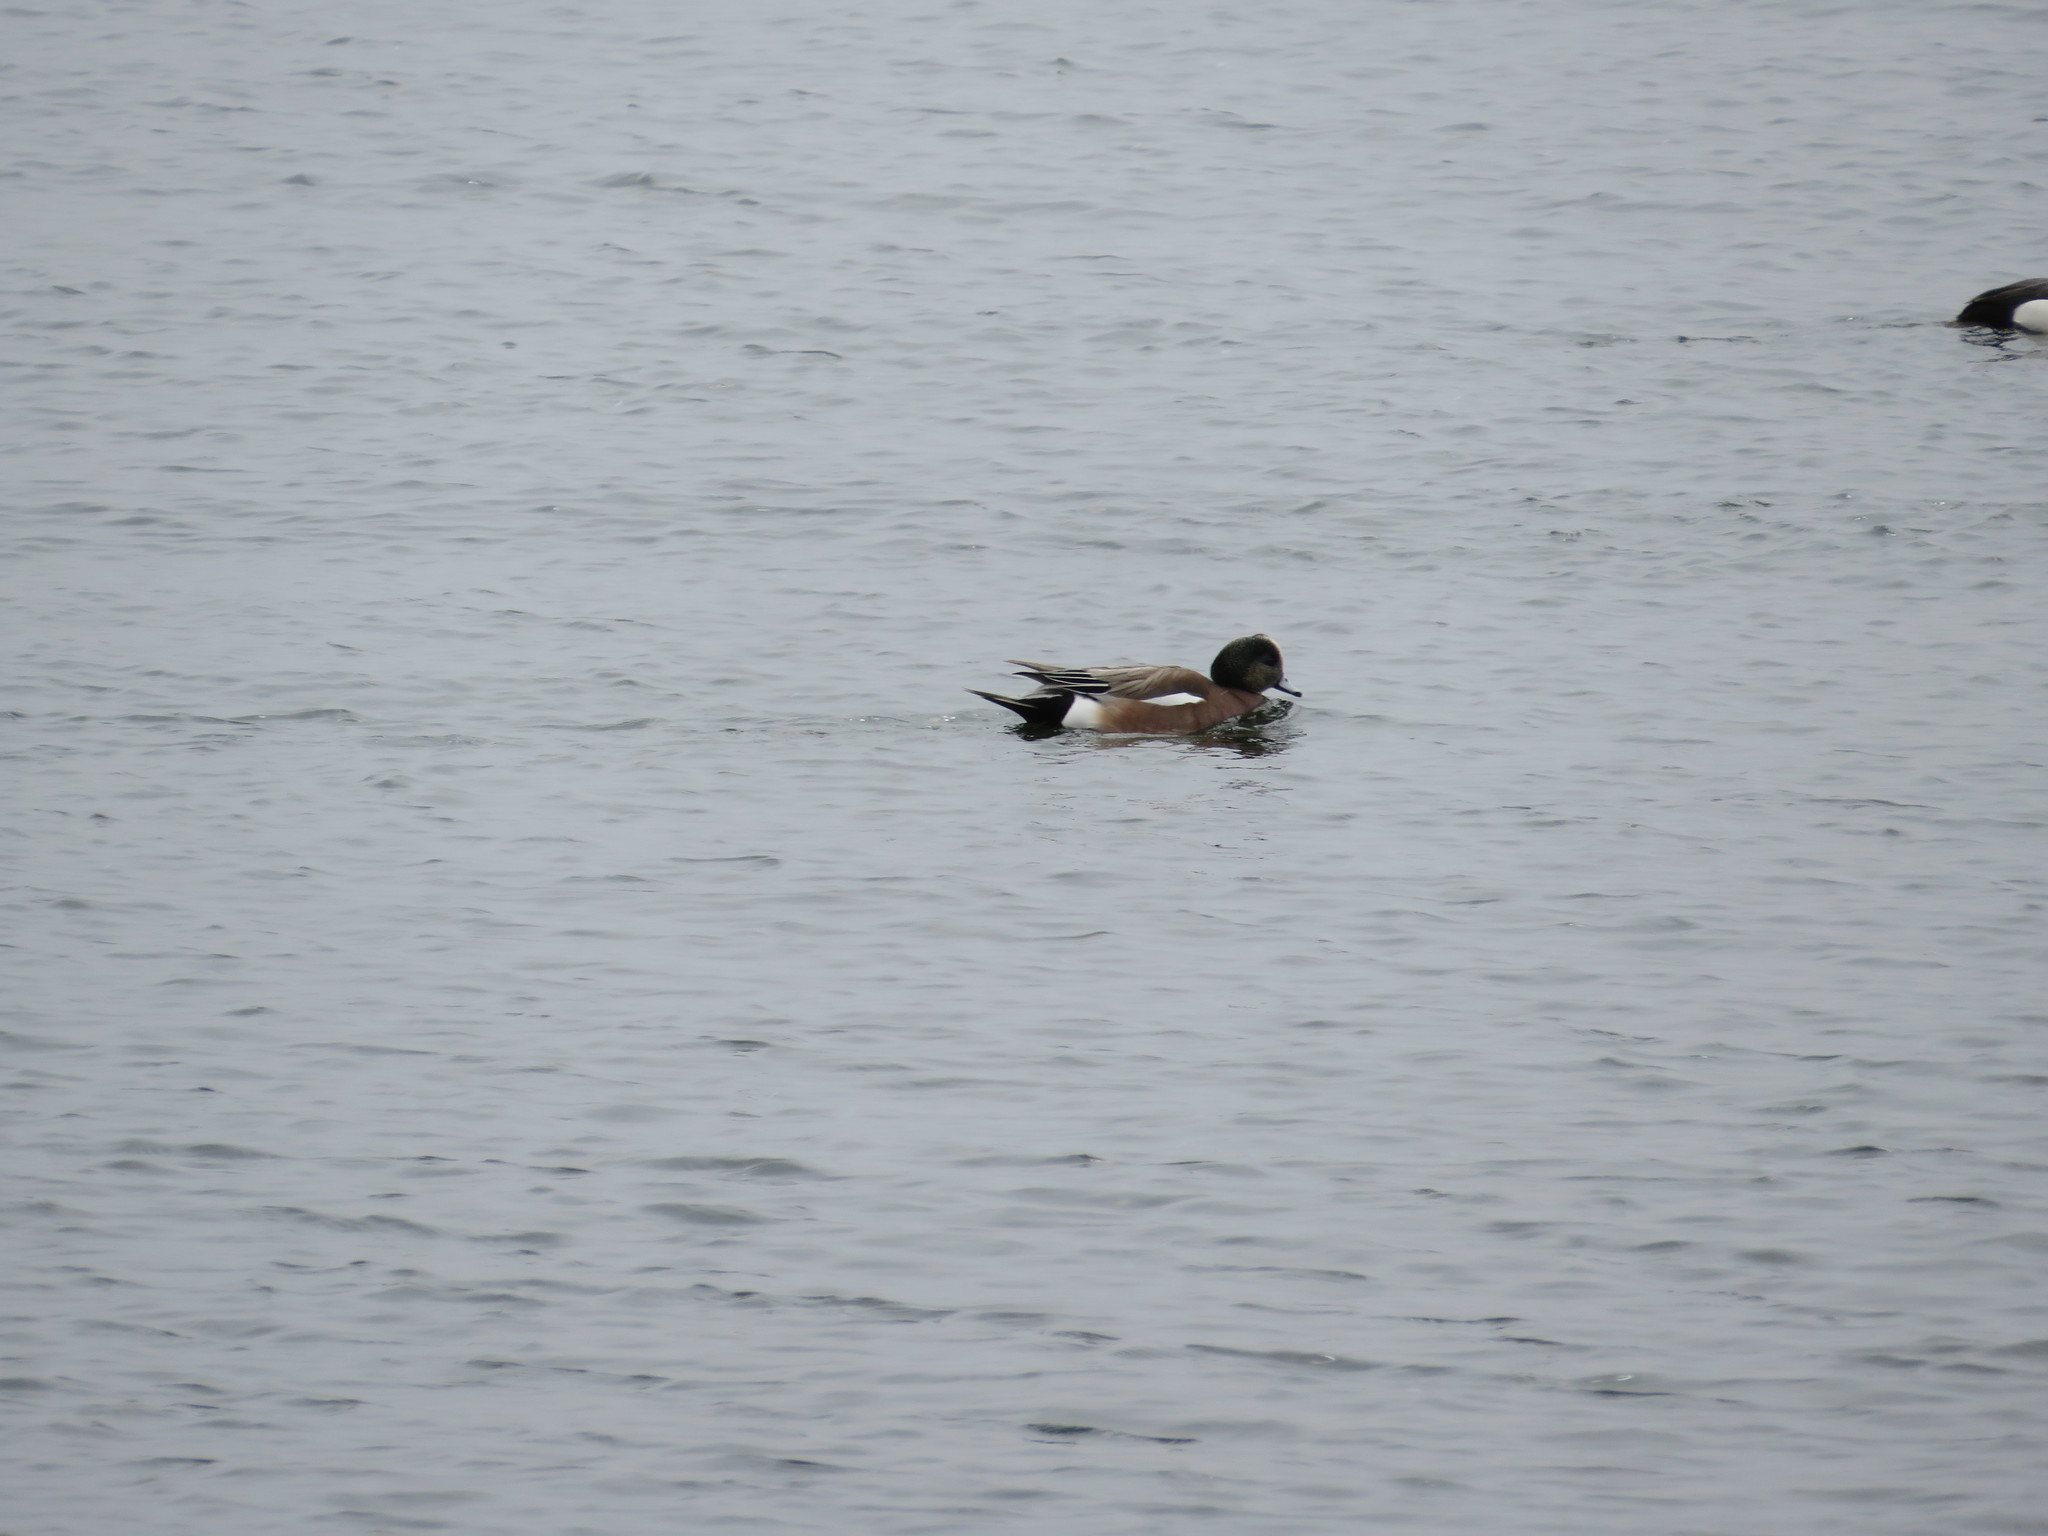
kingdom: Animalia
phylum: Chordata
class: Aves
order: Anseriformes
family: Anatidae
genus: Mareca
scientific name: Mareca americana
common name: American wigeon
